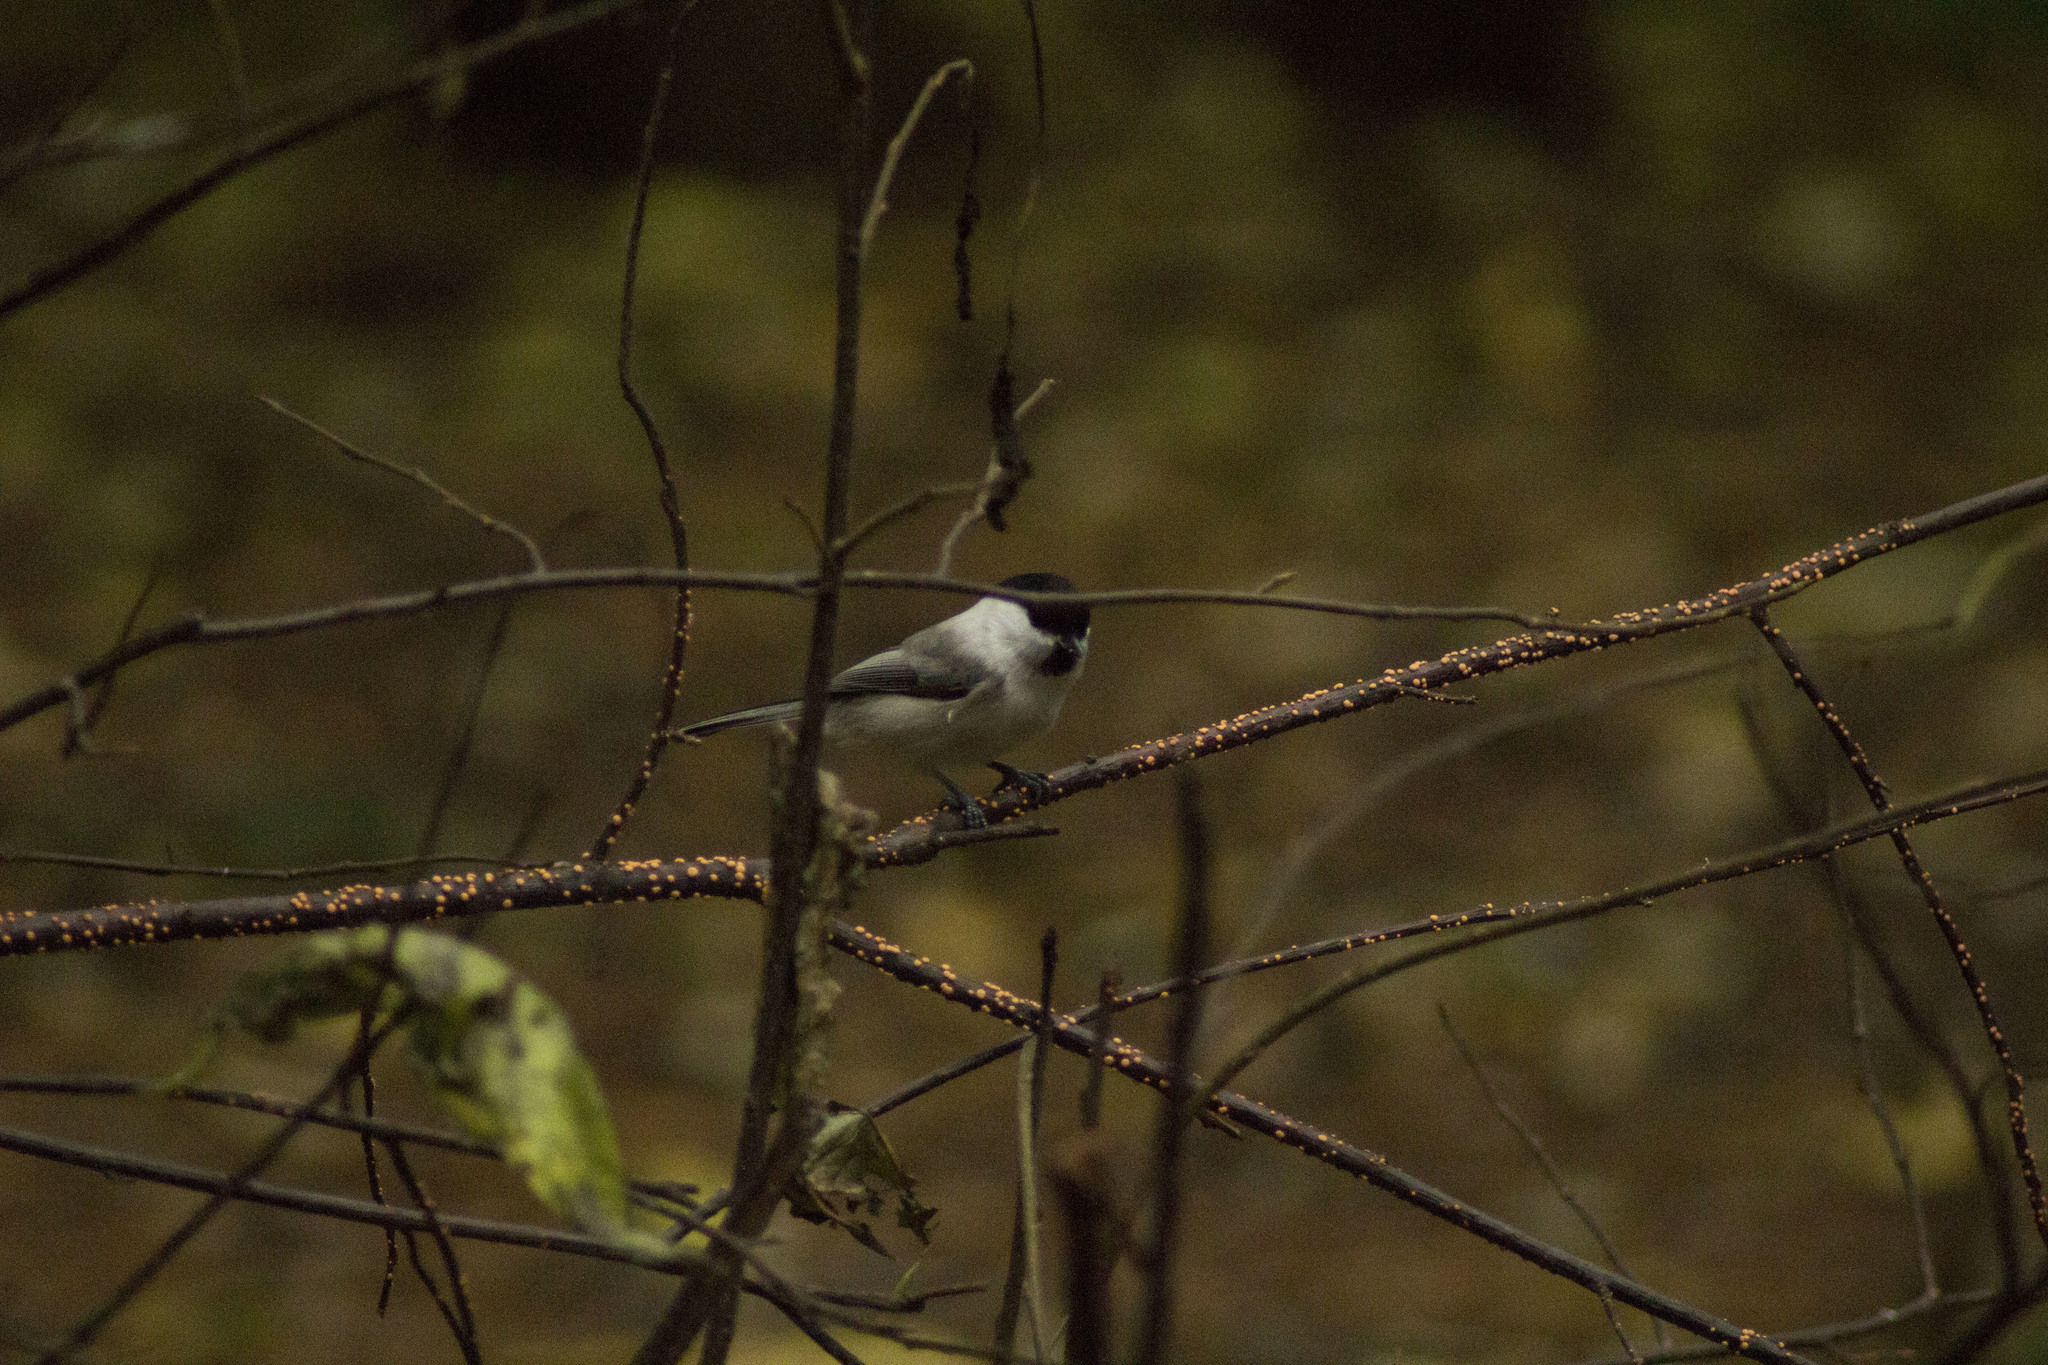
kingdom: Animalia
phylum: Chordata
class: Aves
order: Passeriformes
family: Paridae
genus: Poecile
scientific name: Poecile montanus
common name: Willow tit
